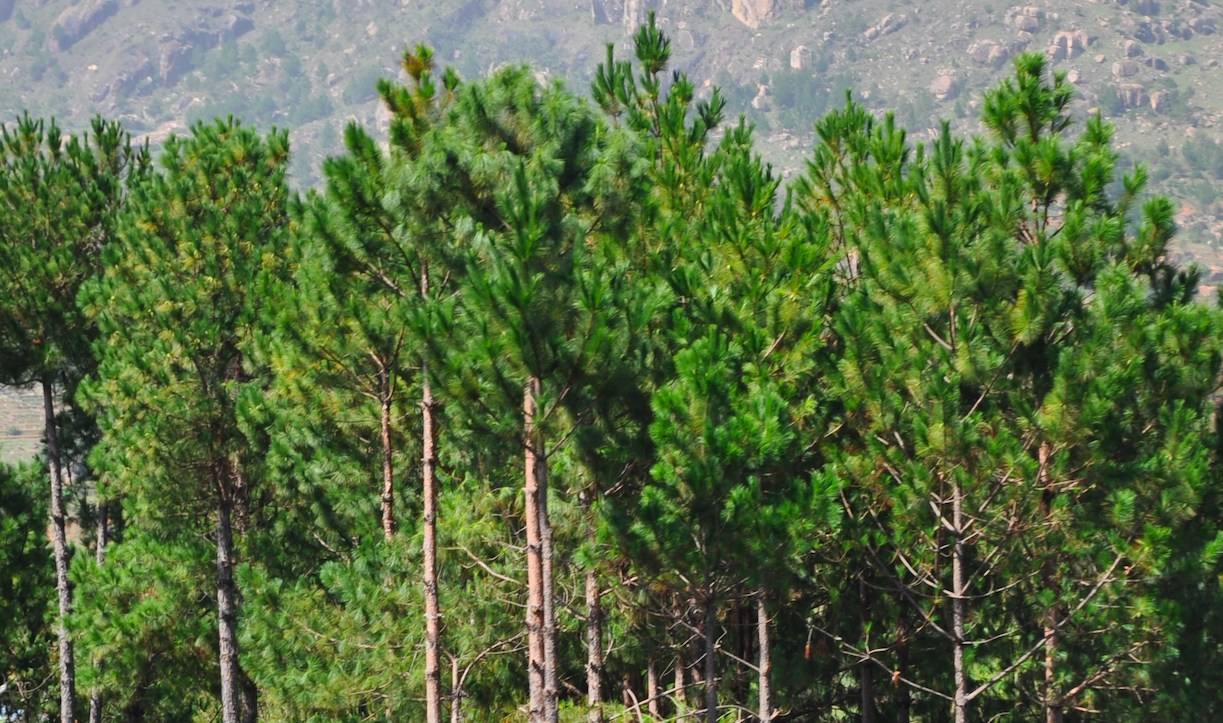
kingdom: Plantae
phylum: Tracheophyta
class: Pinopsida
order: Pinales
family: Pinaceae
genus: Pinus
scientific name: Pinus kesiya
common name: Benguet pine
